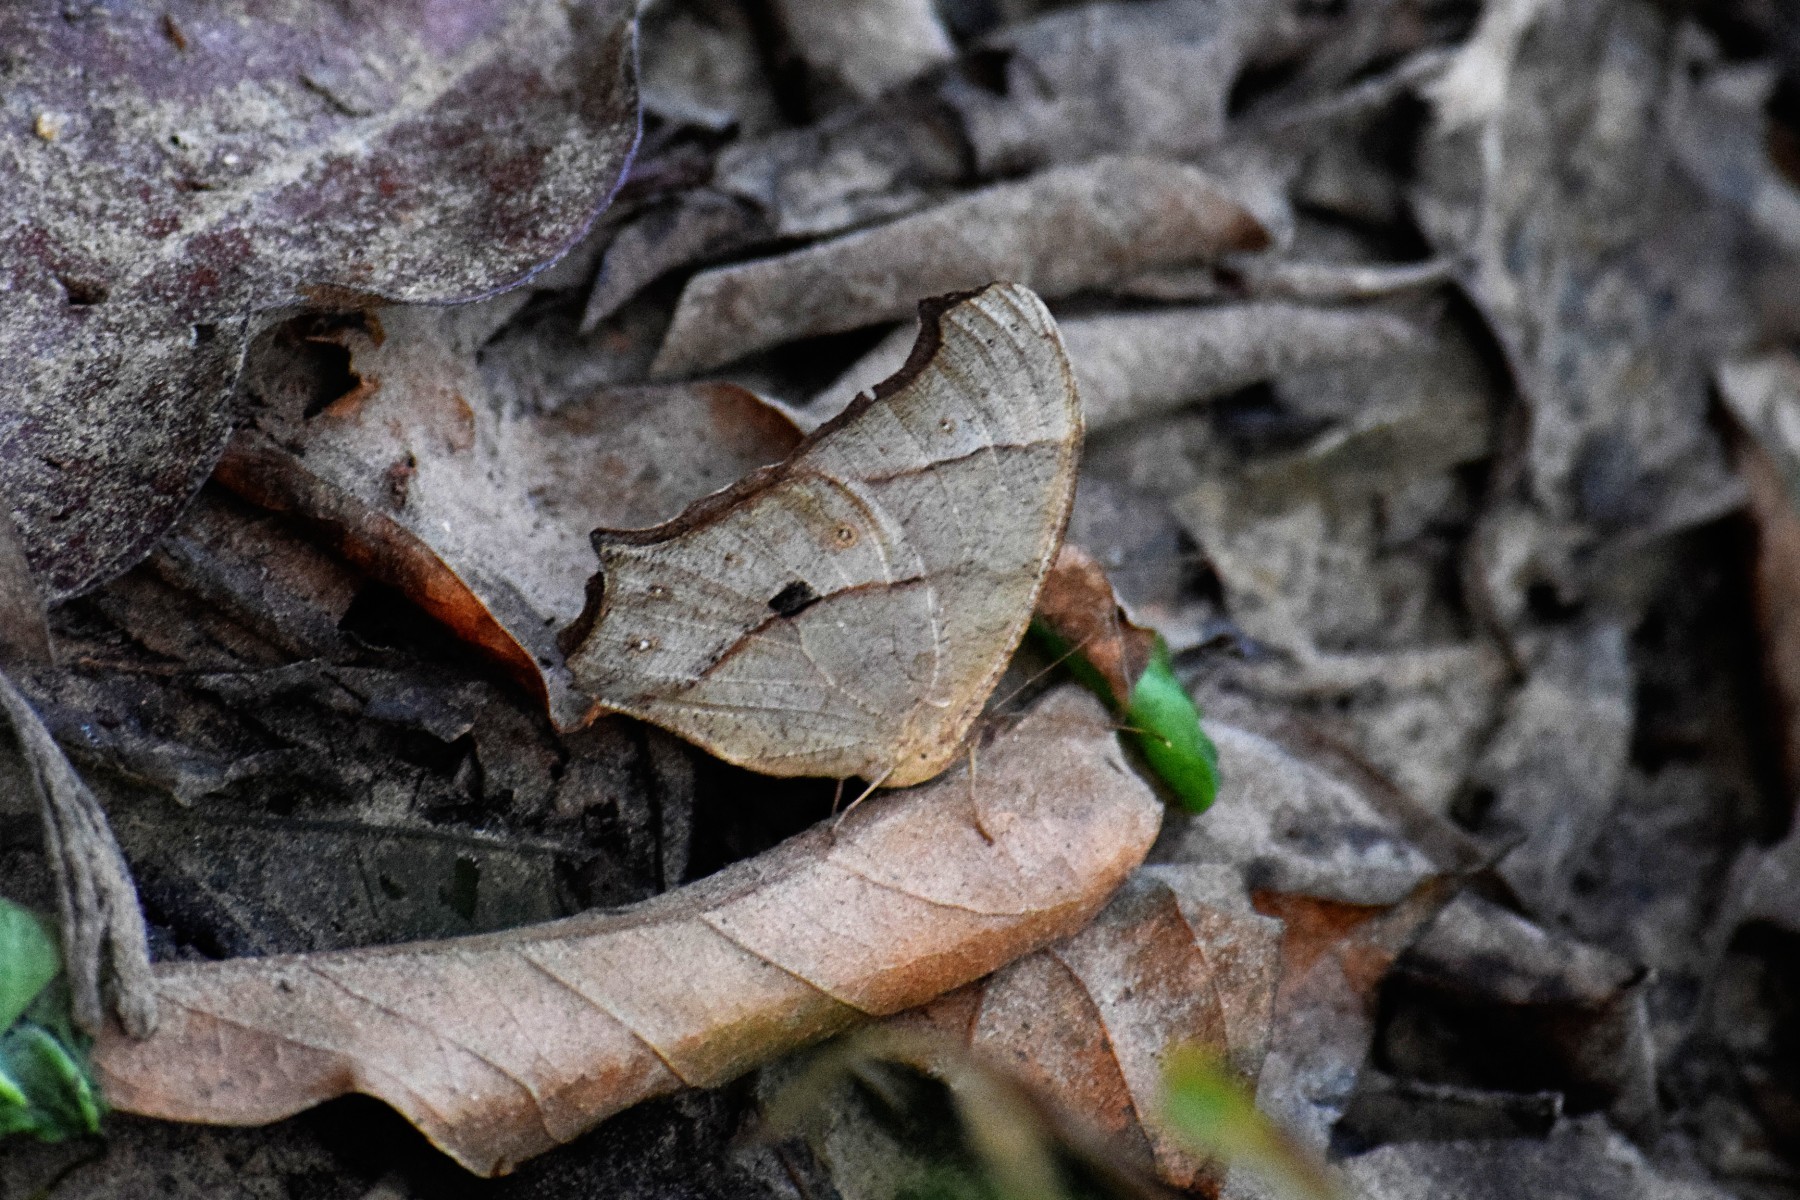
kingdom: Animalia
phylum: Arthropoda
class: Insecta
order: Lepidoptera
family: Nymphalidae
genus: Melanitis
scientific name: Melanitis leda
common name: Twilight brown
